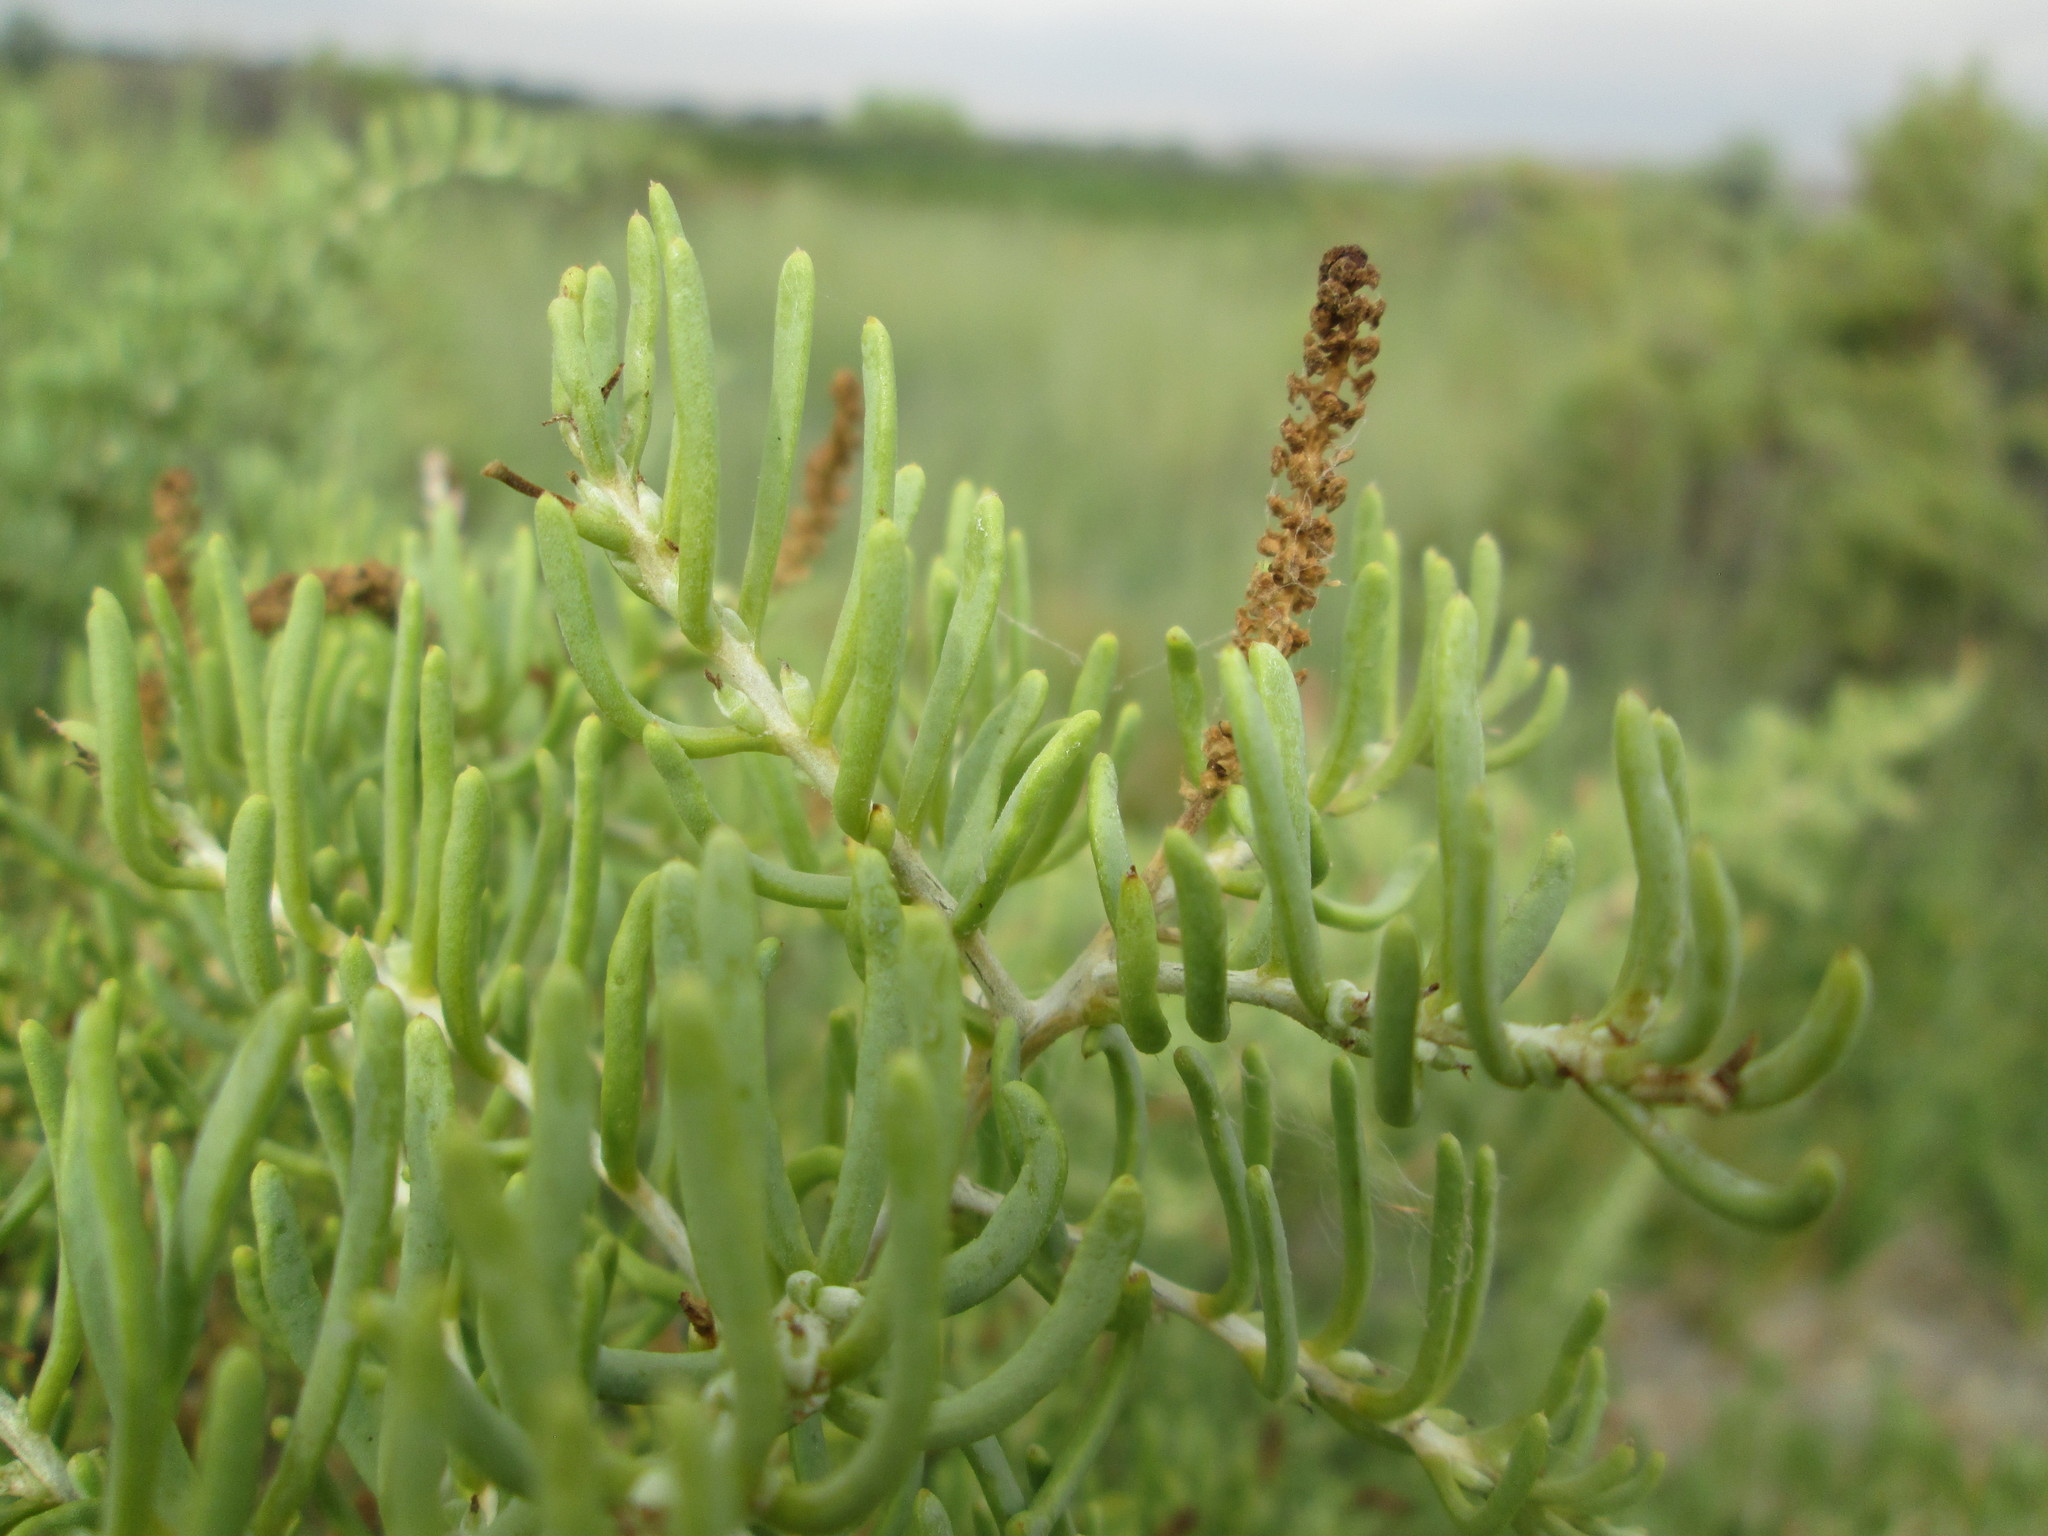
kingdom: Plantae
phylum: Tracheophyta
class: Magnoliopsida
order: Caryophyllales
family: Sarcobataceae
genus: Sarcobatus
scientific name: Sarcobatus vermiculatus
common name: Greasewood
